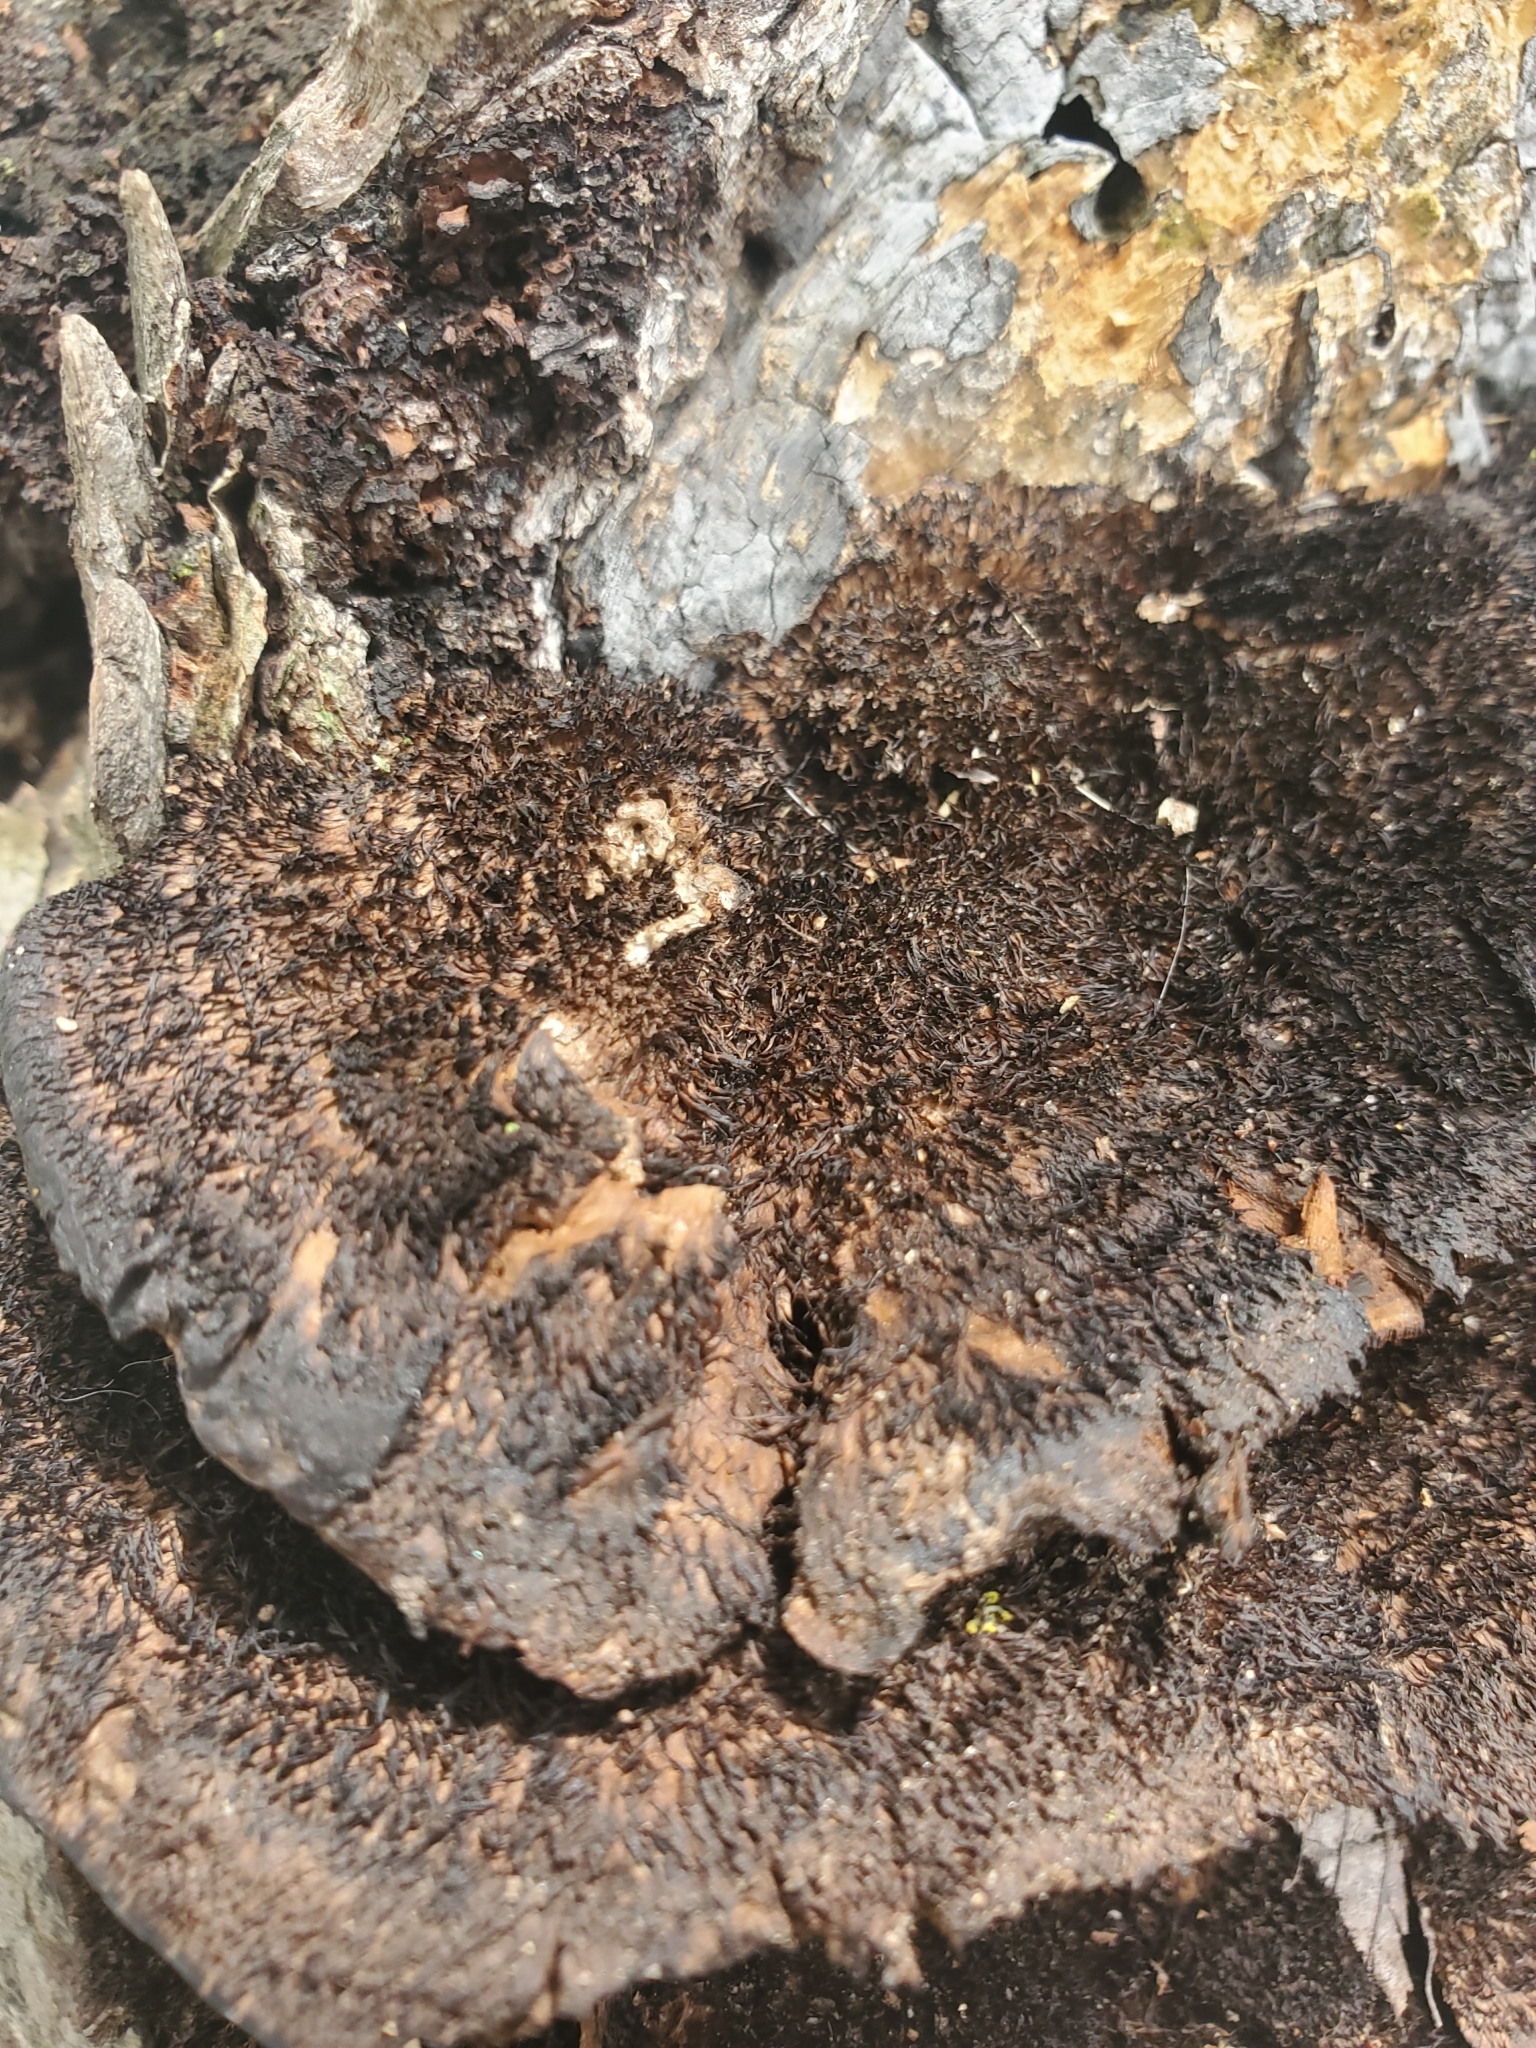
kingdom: Fungi
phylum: Basidiomycota
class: Agaricomycetes
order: Polyporales
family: Cerrenaceae
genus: Cerrena
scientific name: Cerrena hydnoides
